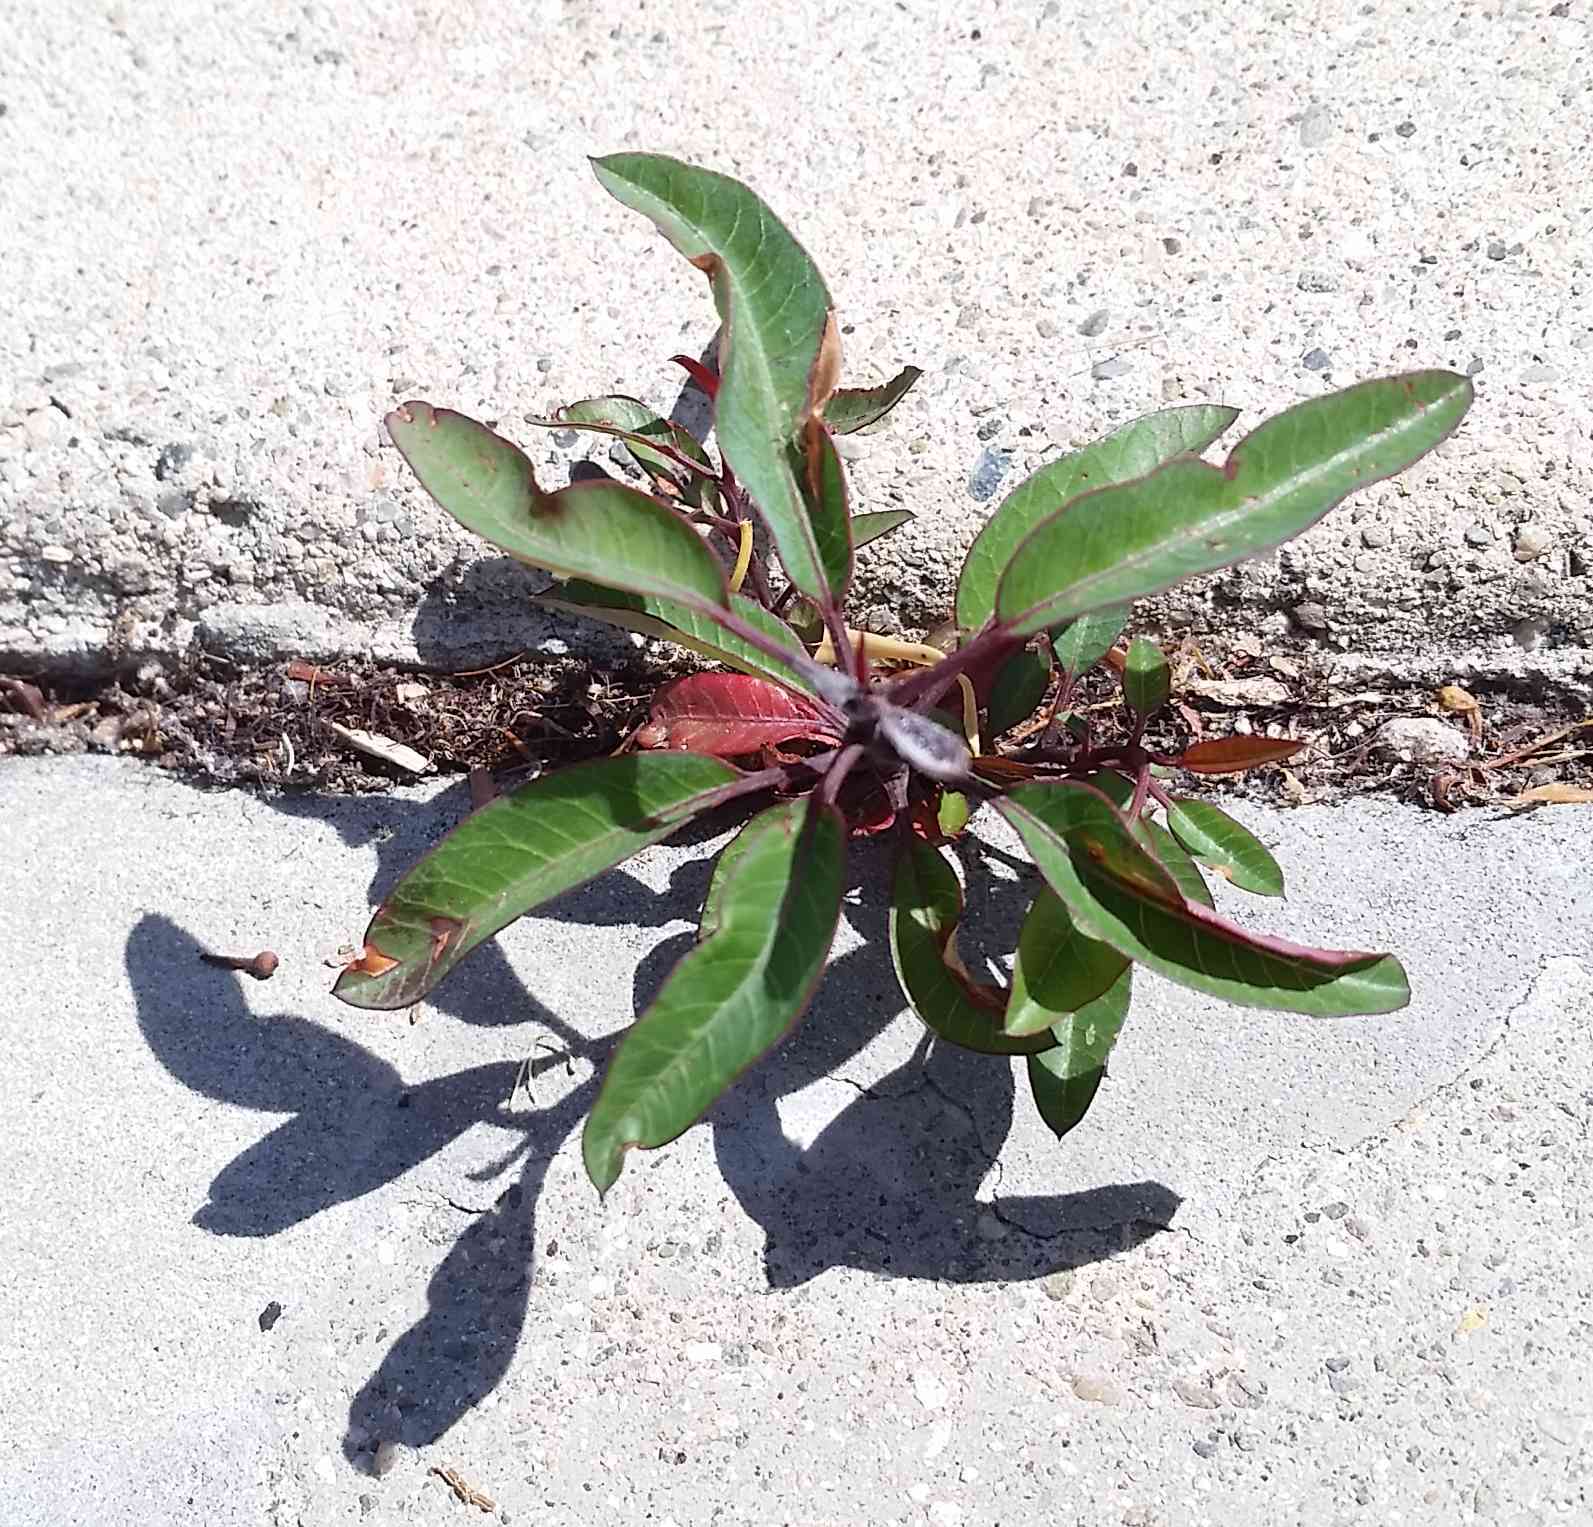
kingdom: Plantae
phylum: Tracheophyta
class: Magnoliopsida
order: Sapindales
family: Anacardiaceae
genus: Malosma
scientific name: Malosma laurina
